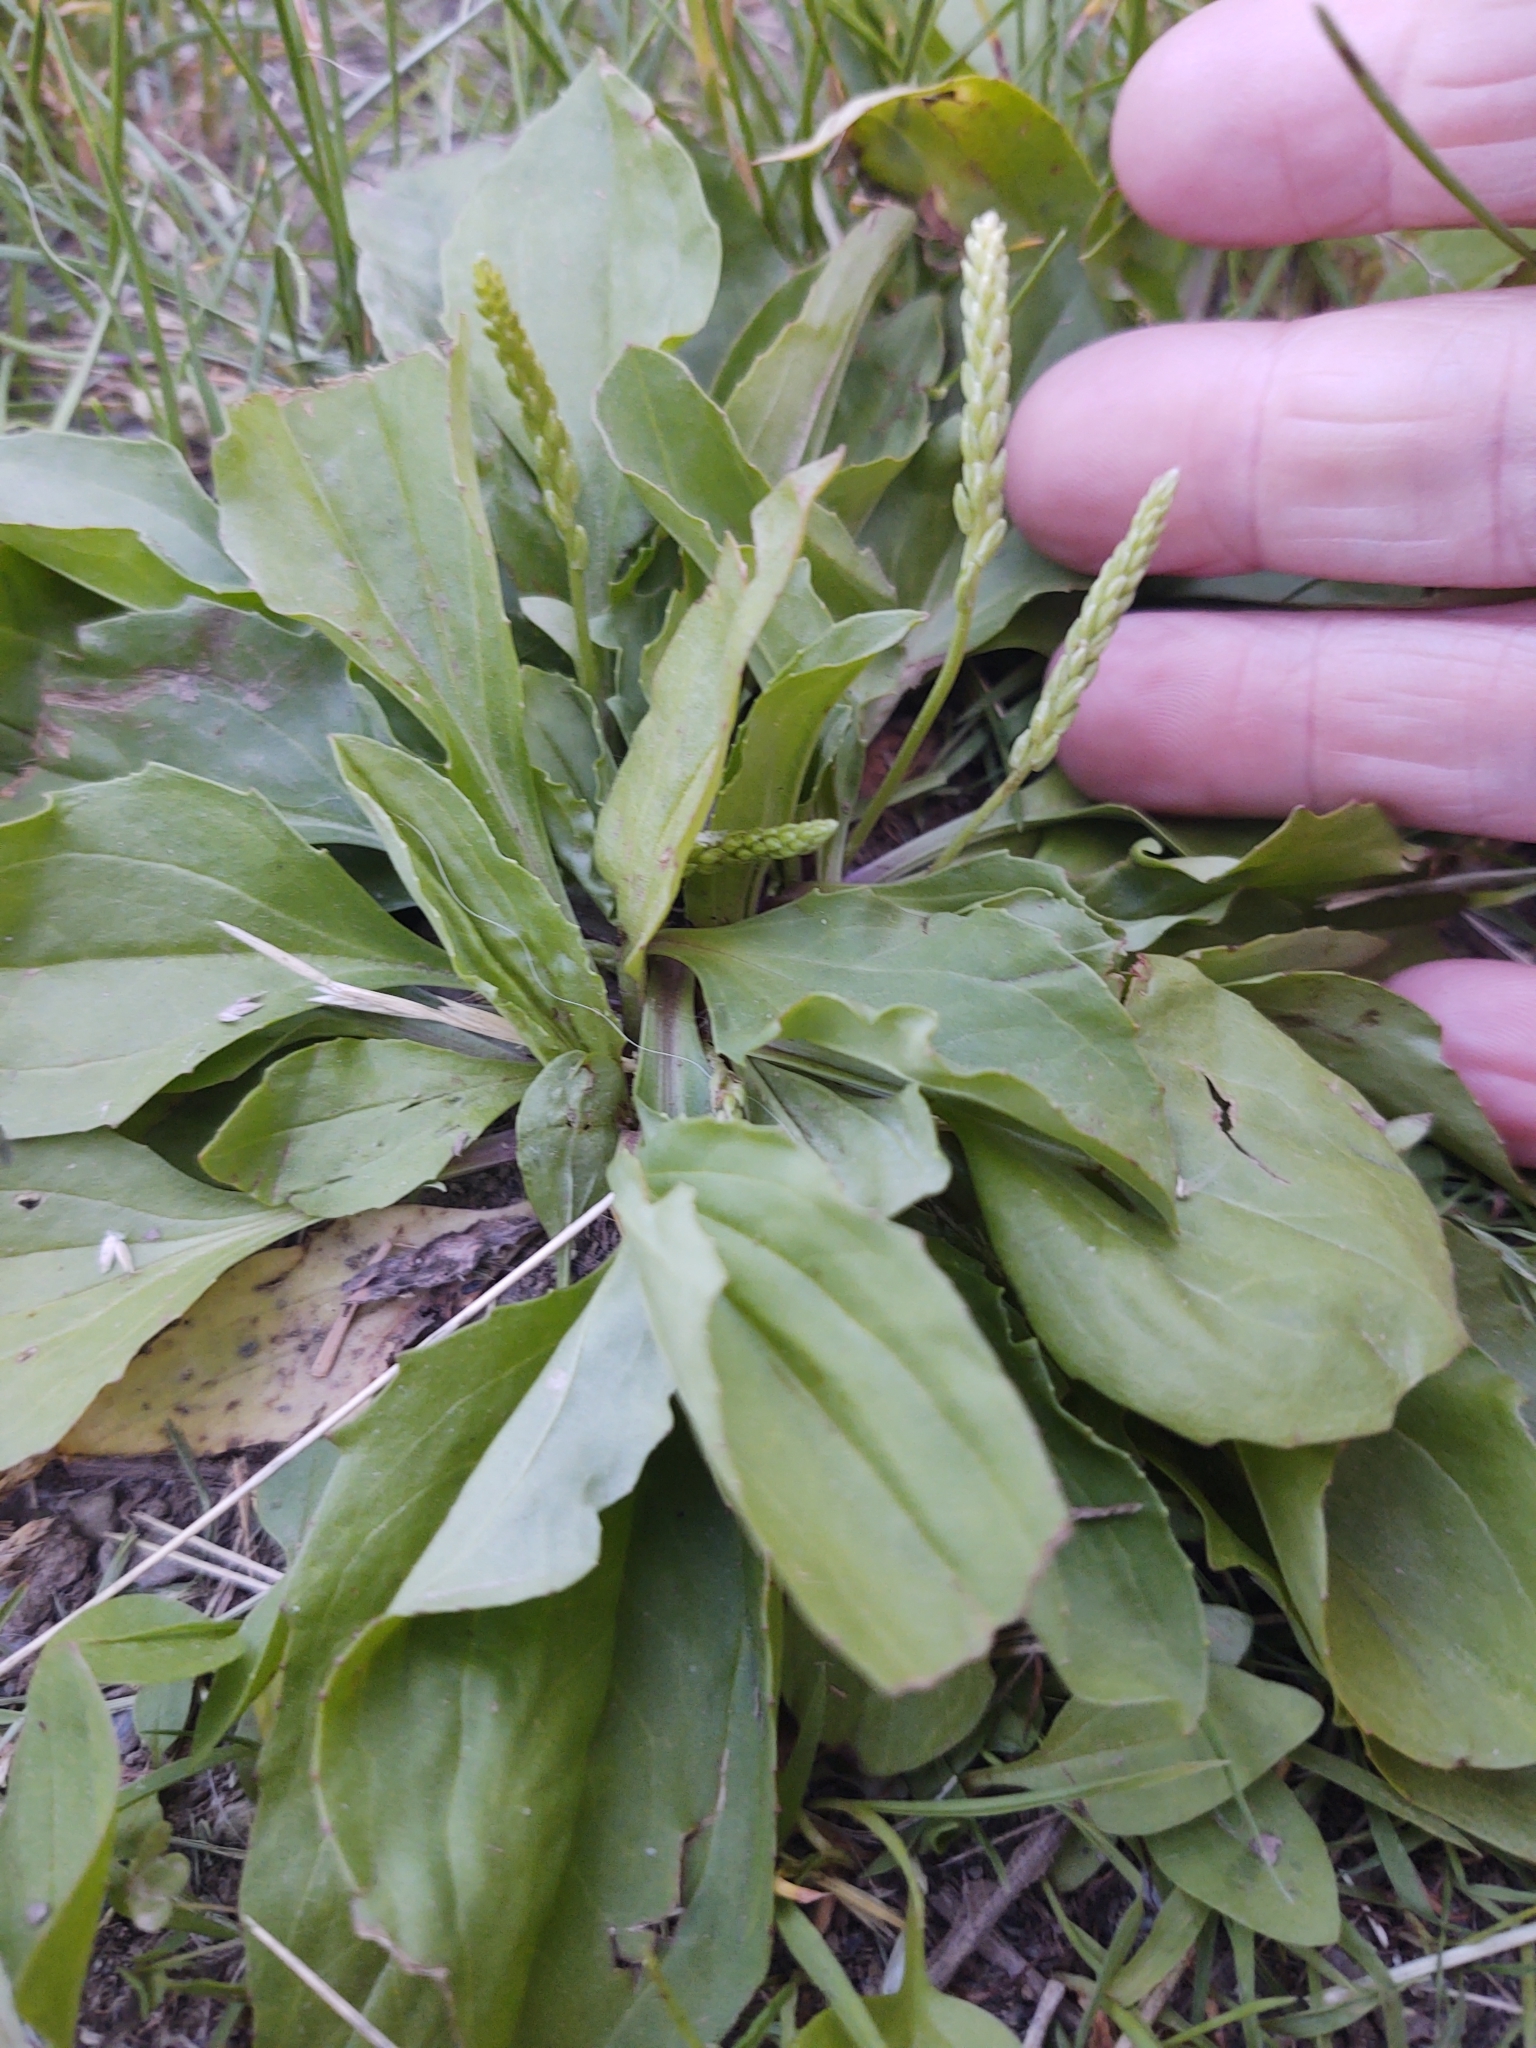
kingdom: Plantae
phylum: Tracheophyta
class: Magnoliopsida
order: Lamiales
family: Plantaginaceae
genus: Plantago
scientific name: Plantago rugelii
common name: American plantain
